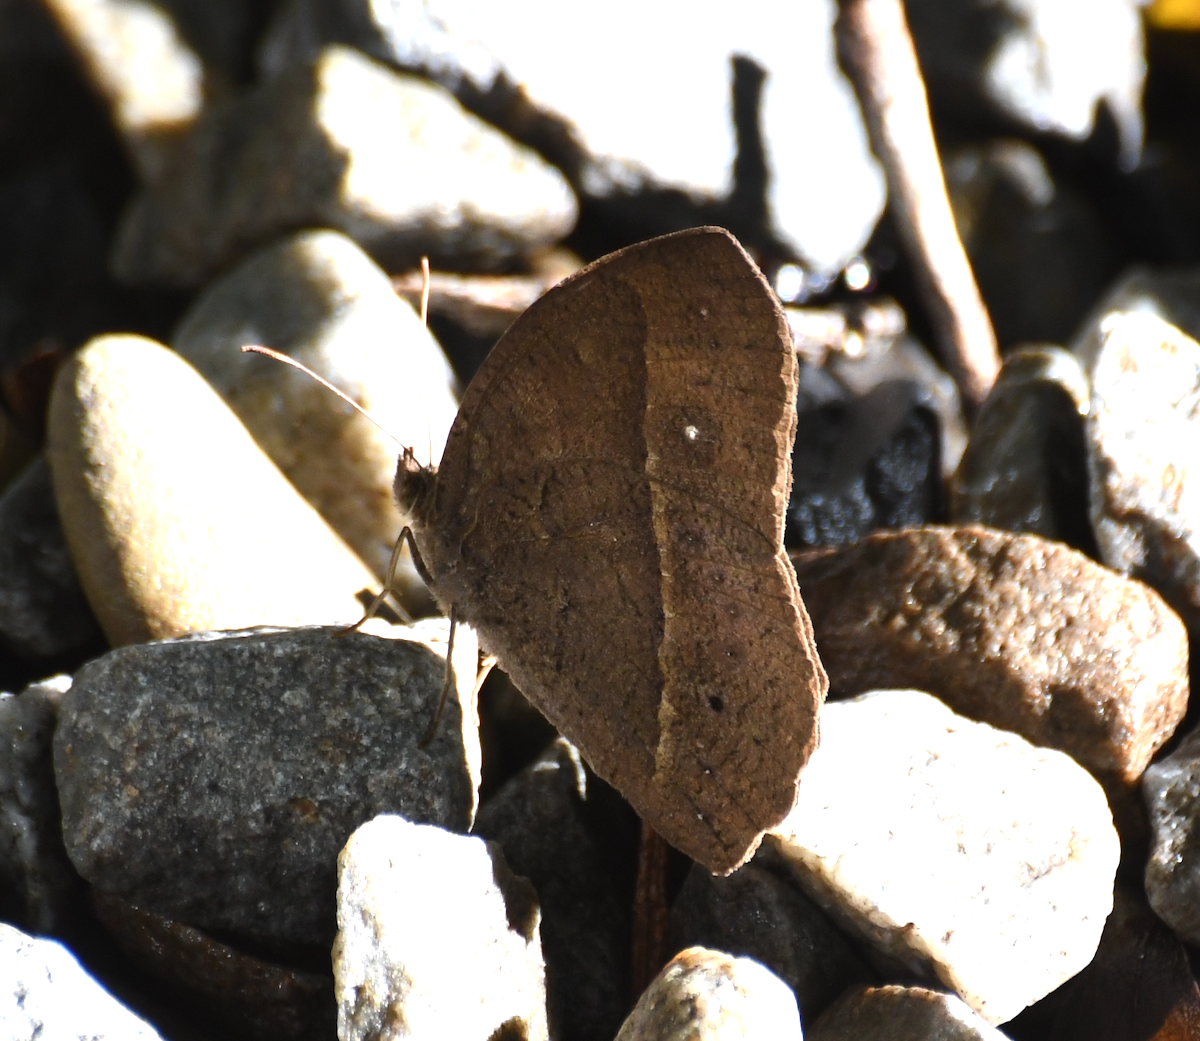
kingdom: Animalia
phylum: Arthropoda
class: Insecta
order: Lepidoptera
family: Nymphalidae
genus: Mycalesis
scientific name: Mycalesis horsfieldii
